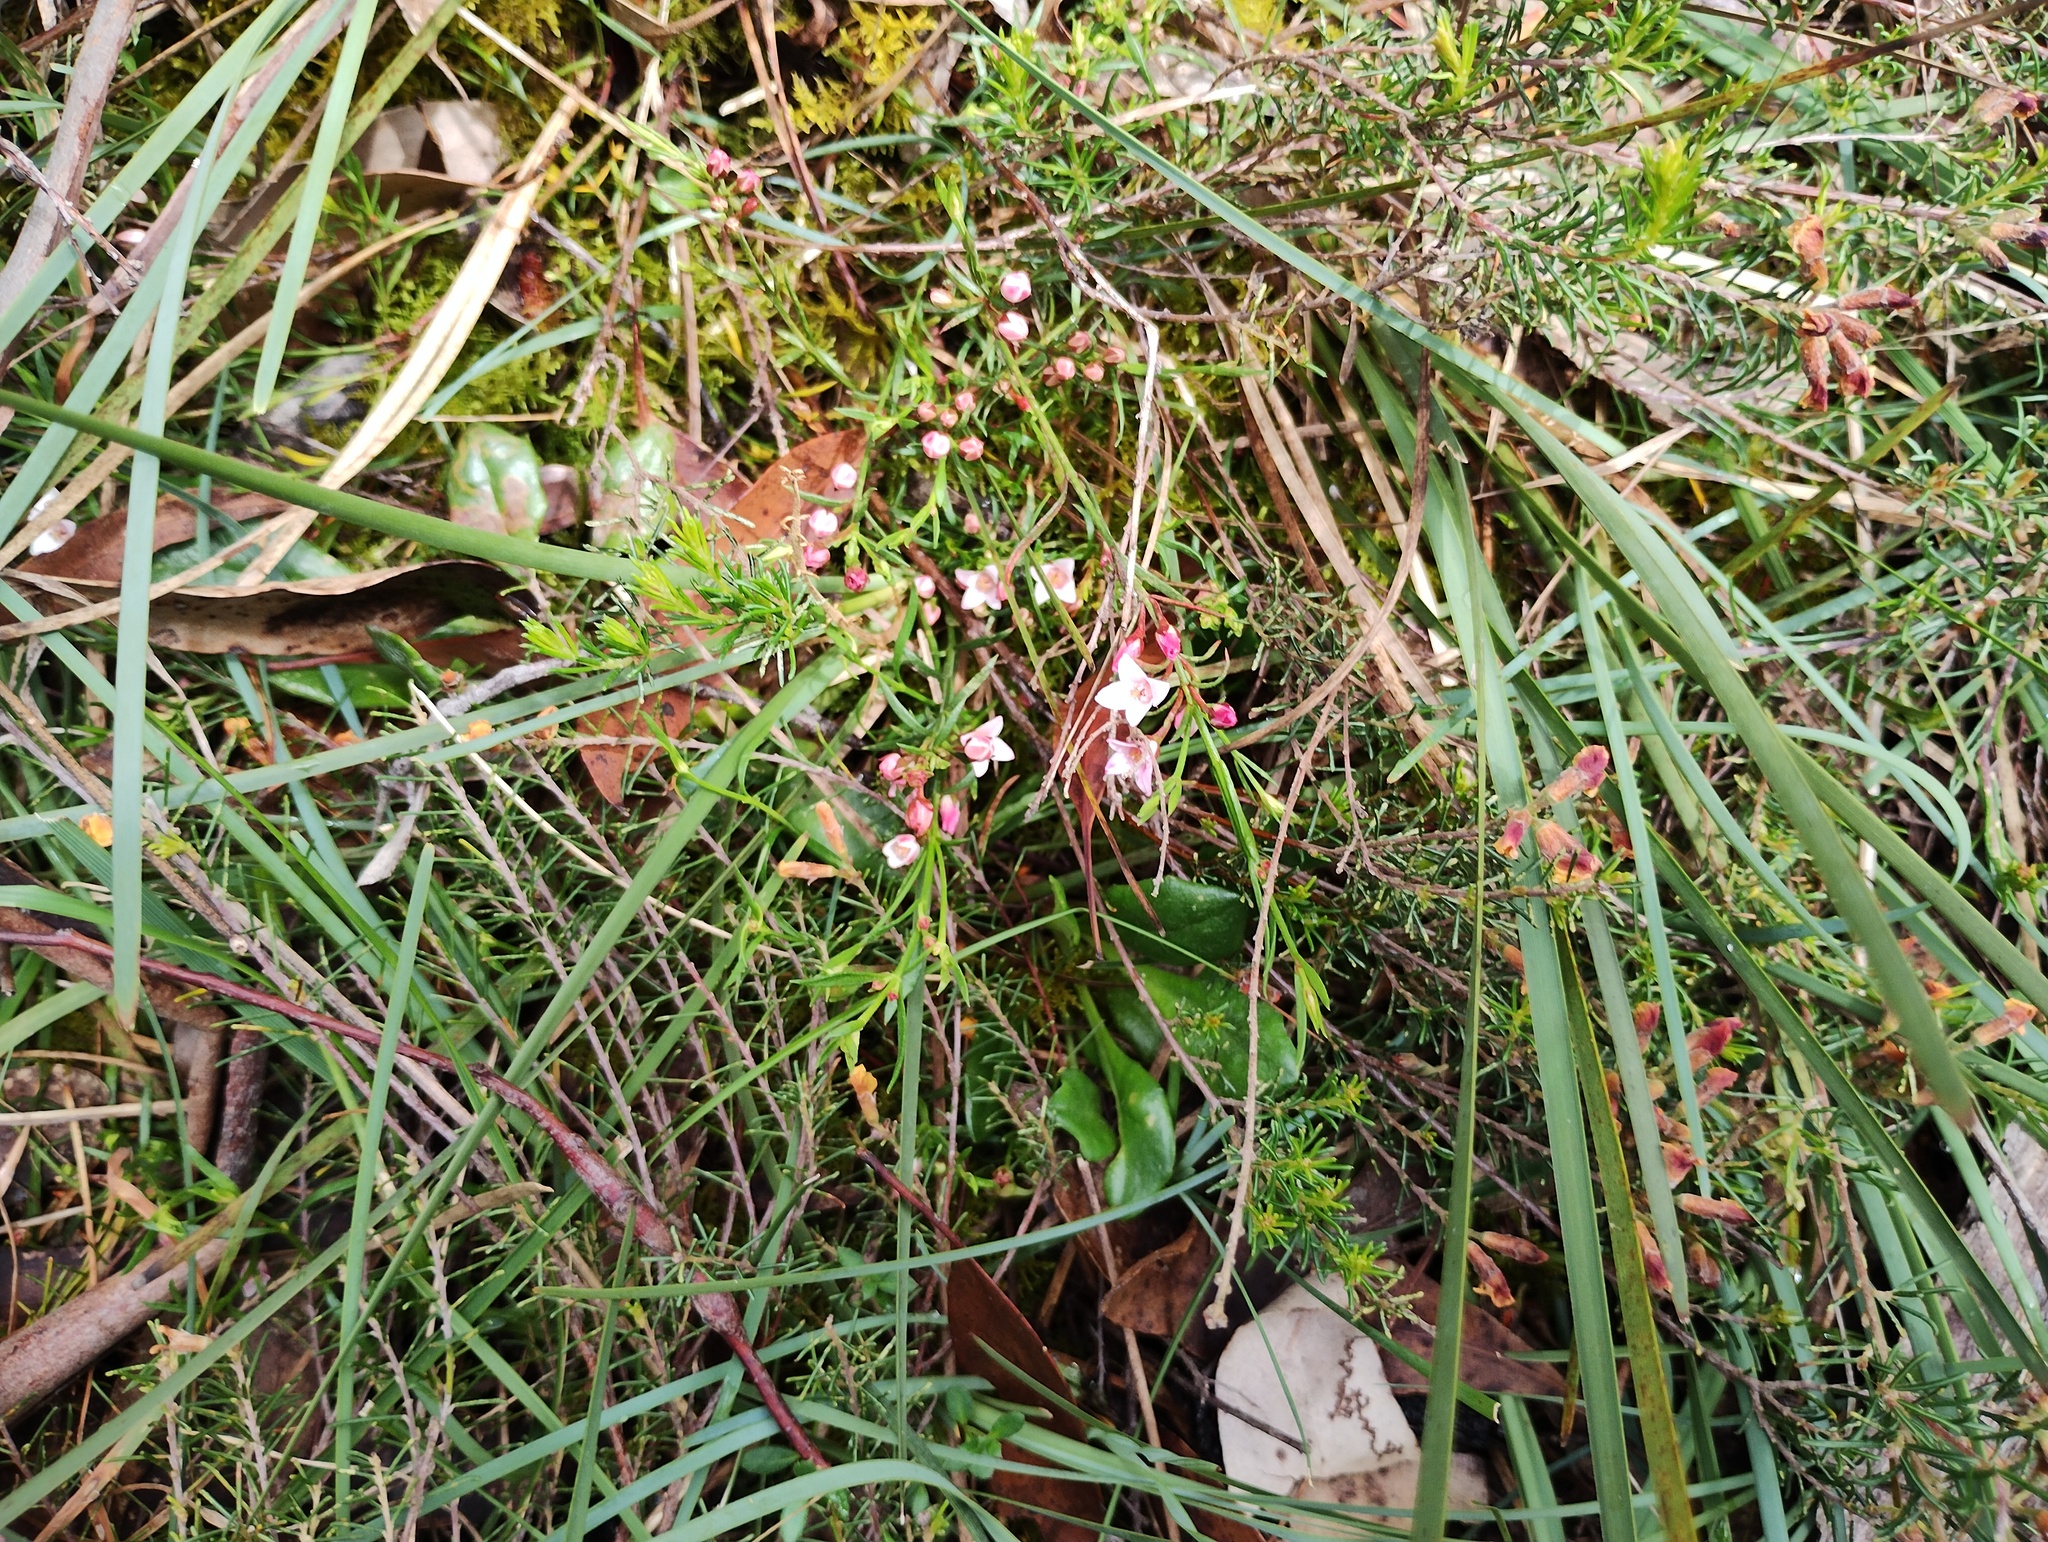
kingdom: Plantae
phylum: Tracheophyta
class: Magnoliopsida
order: Sapindales
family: Rutaceae
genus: Cyanothamnus
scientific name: Cyanothamnus nanus
